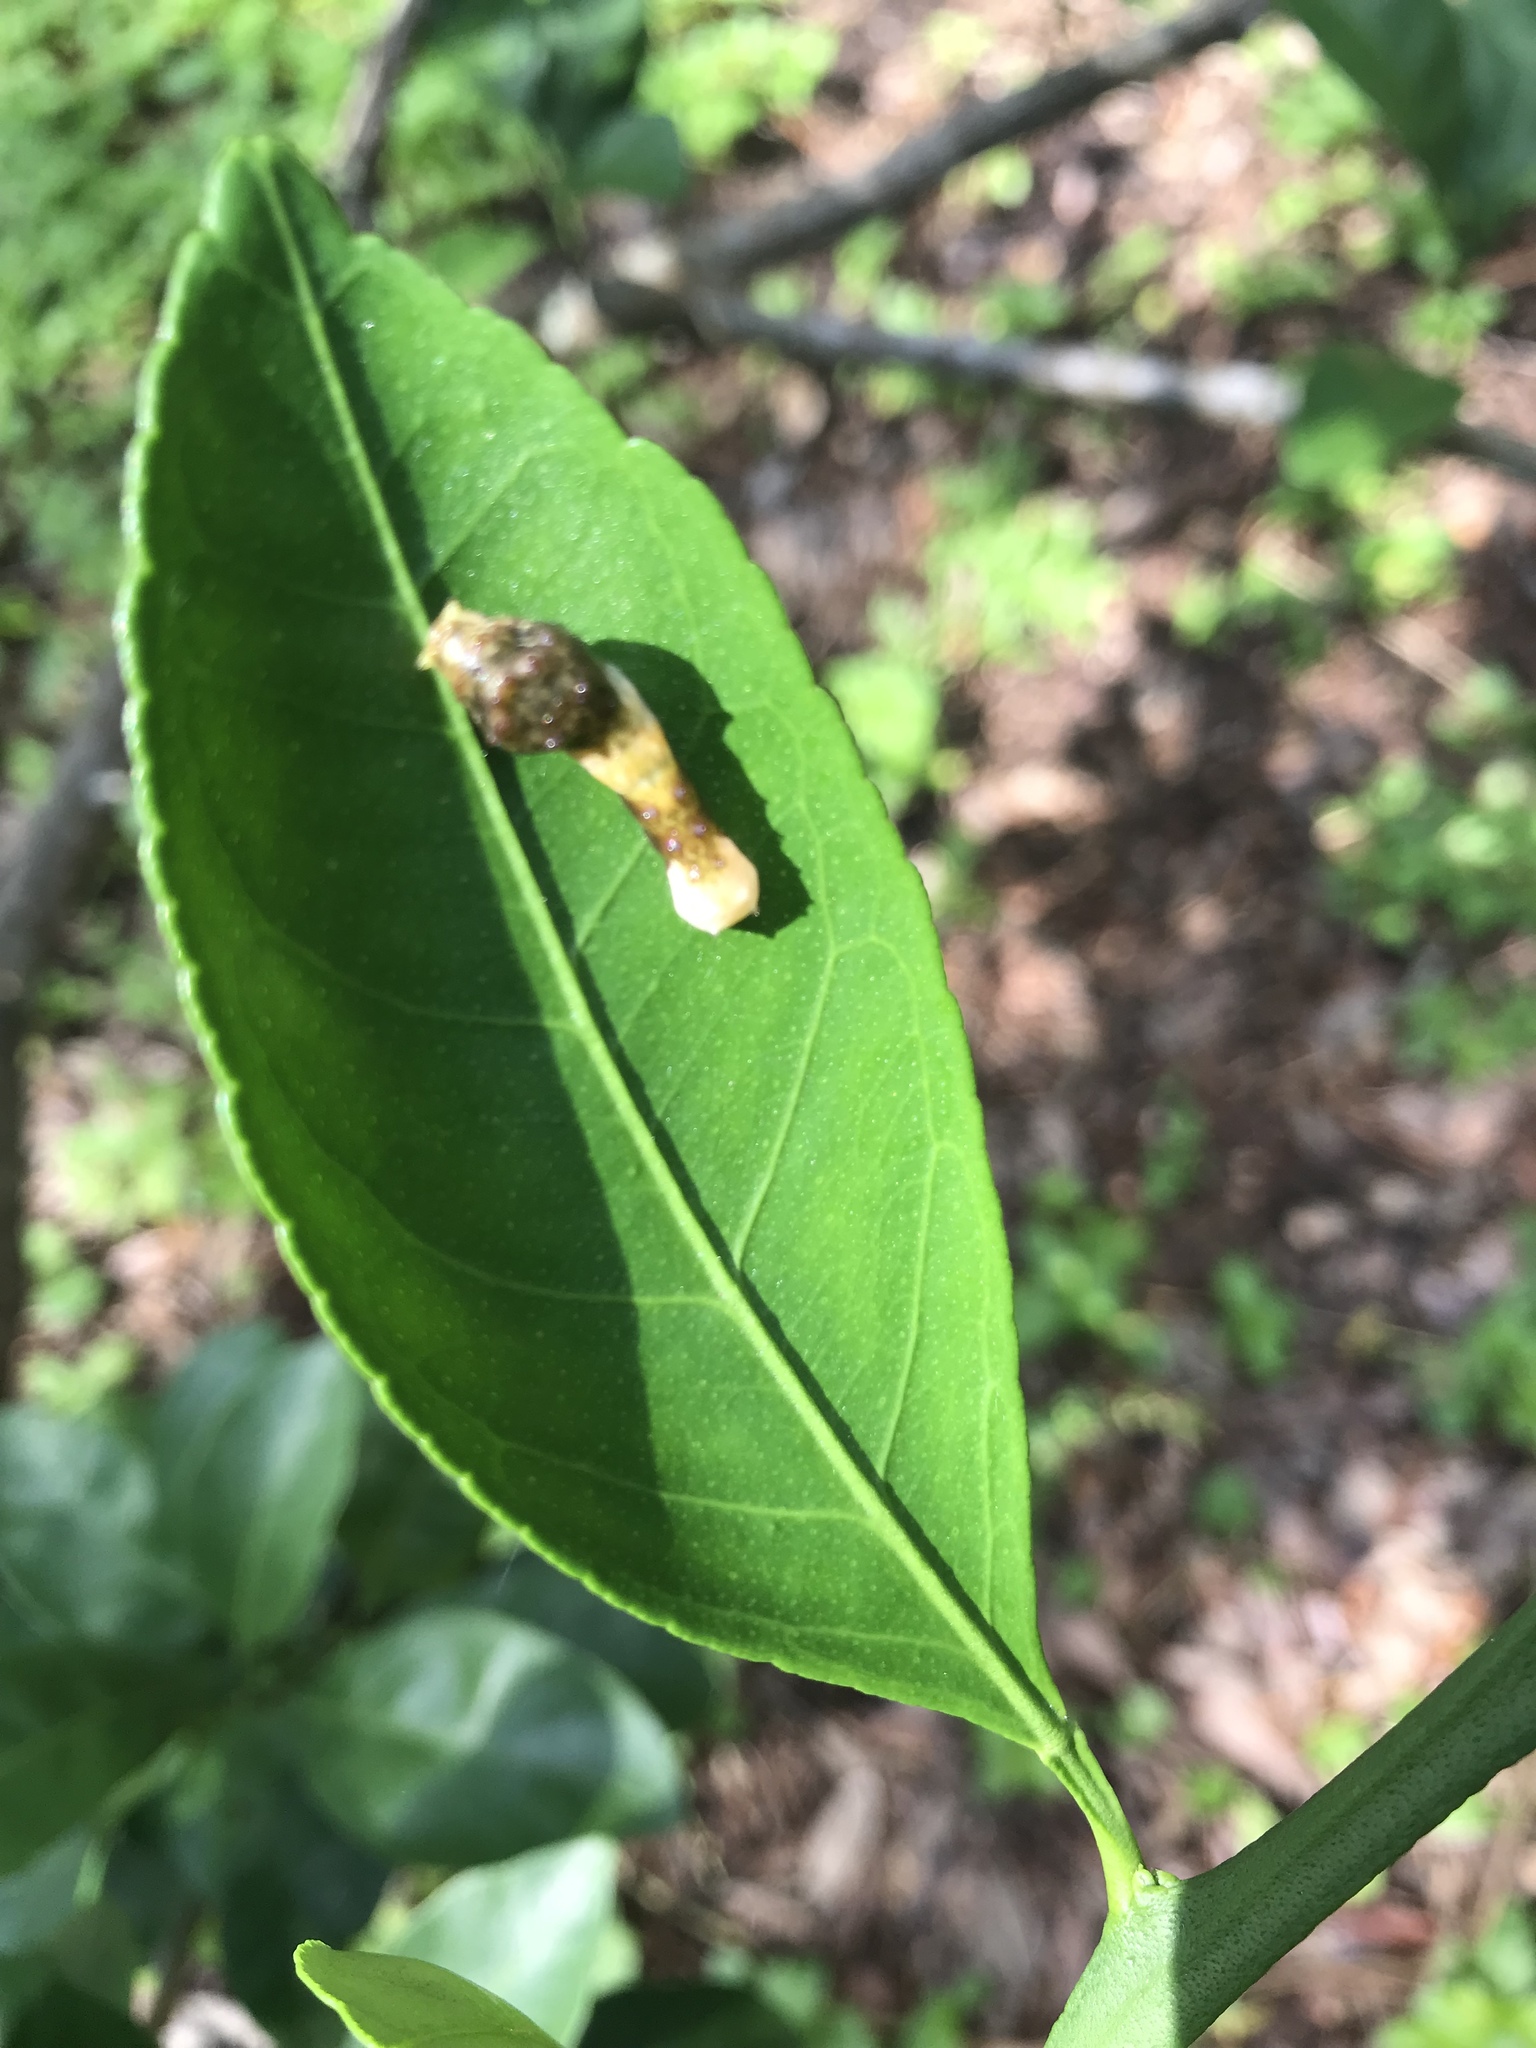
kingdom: Animalia
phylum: Arthropoda
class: Insecta
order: Lepidoptera
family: Papilionidae
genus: Papilio
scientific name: Papilio cresphontes
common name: Giant swallowtail
